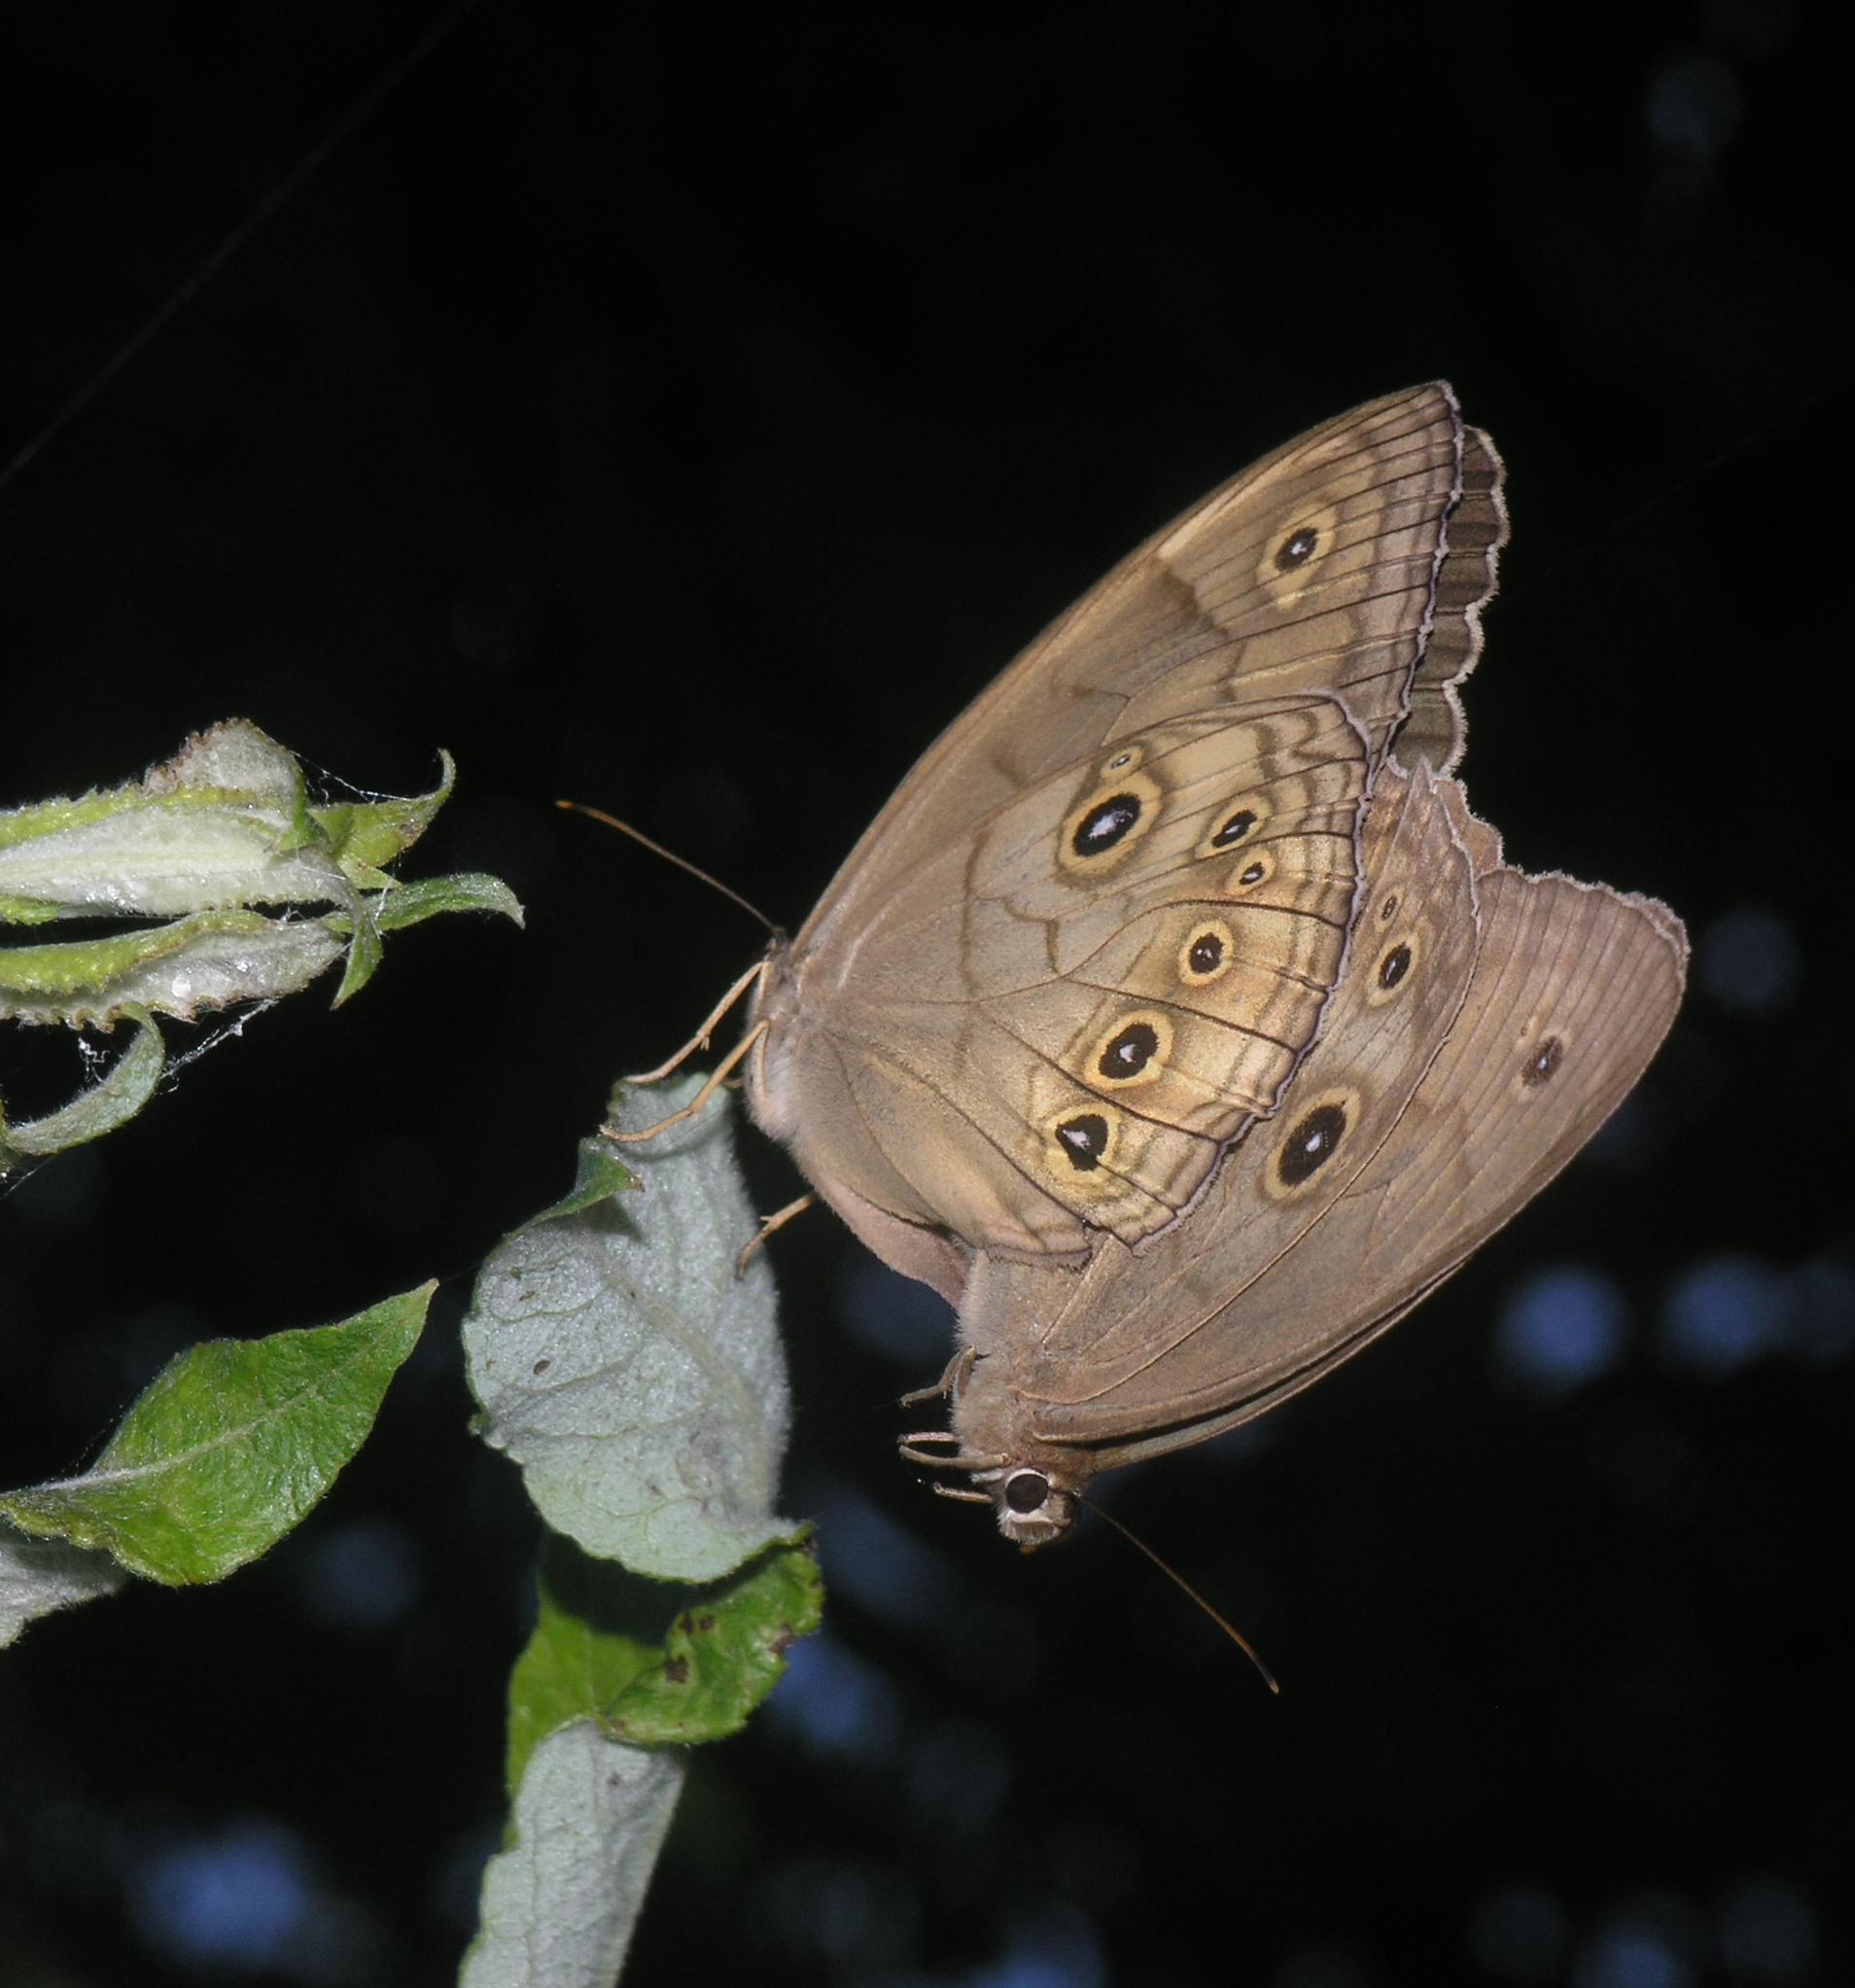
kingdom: Animalia
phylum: Arthropoda
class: Insecta
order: Lepidoptera
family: Nymphalidae
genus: Ninguta
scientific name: Ninguta schrenckii
